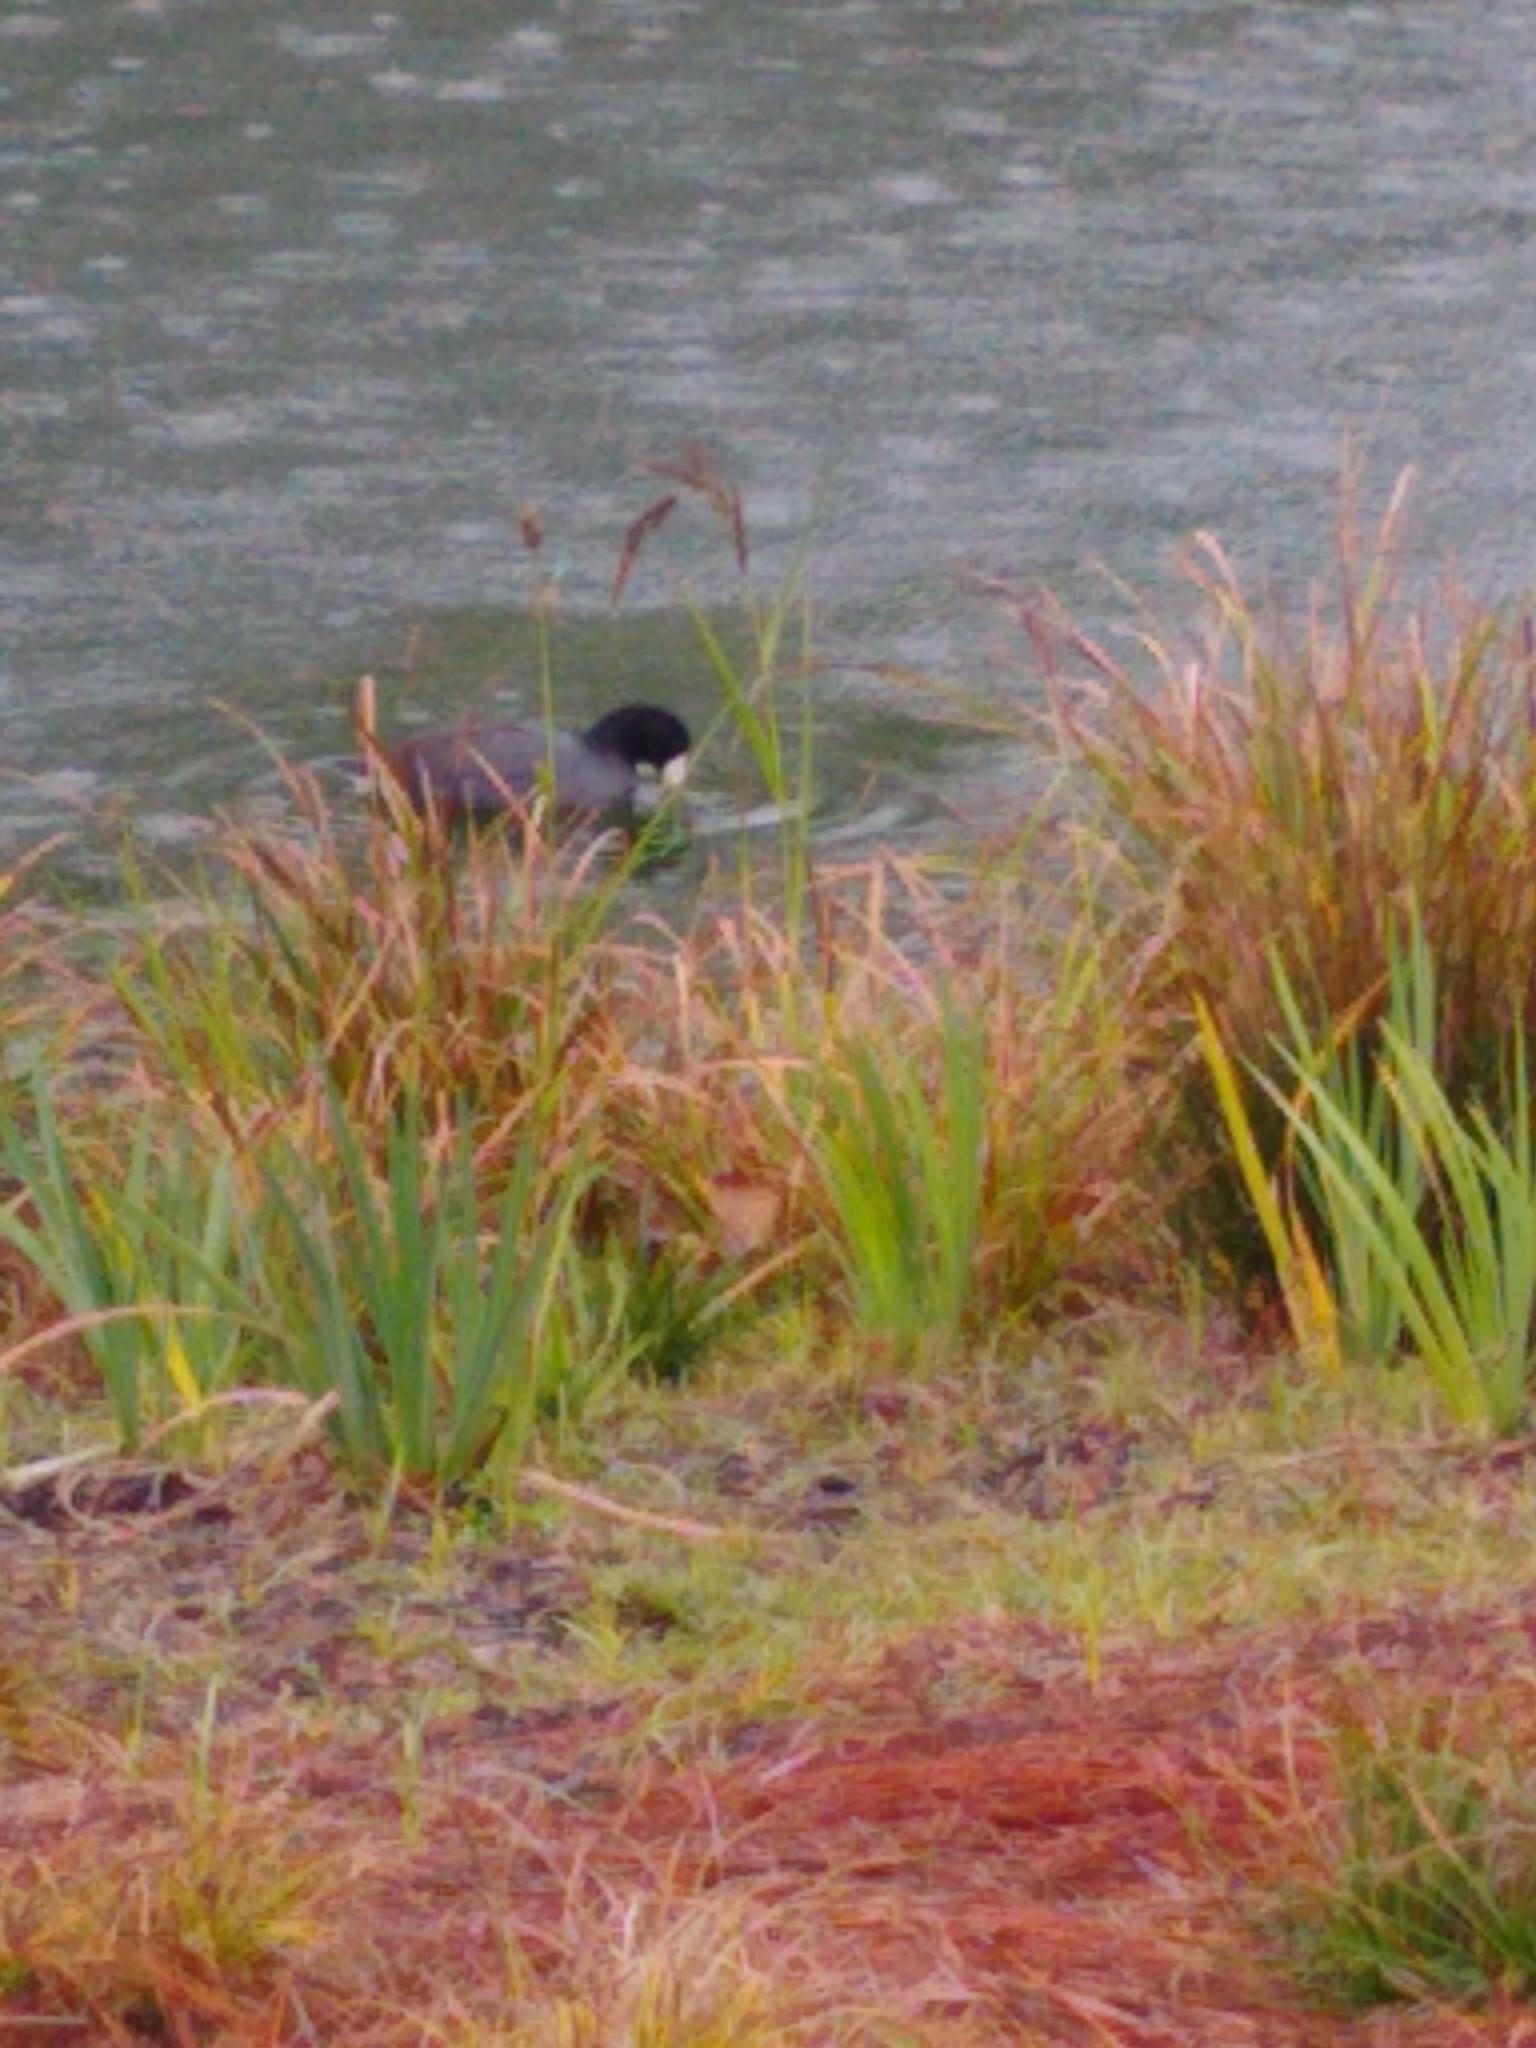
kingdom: Animalia
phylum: Chordata
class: Aves
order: Gruiformes
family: Rallidae
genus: Fulica
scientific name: Fulica americana
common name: American coot
